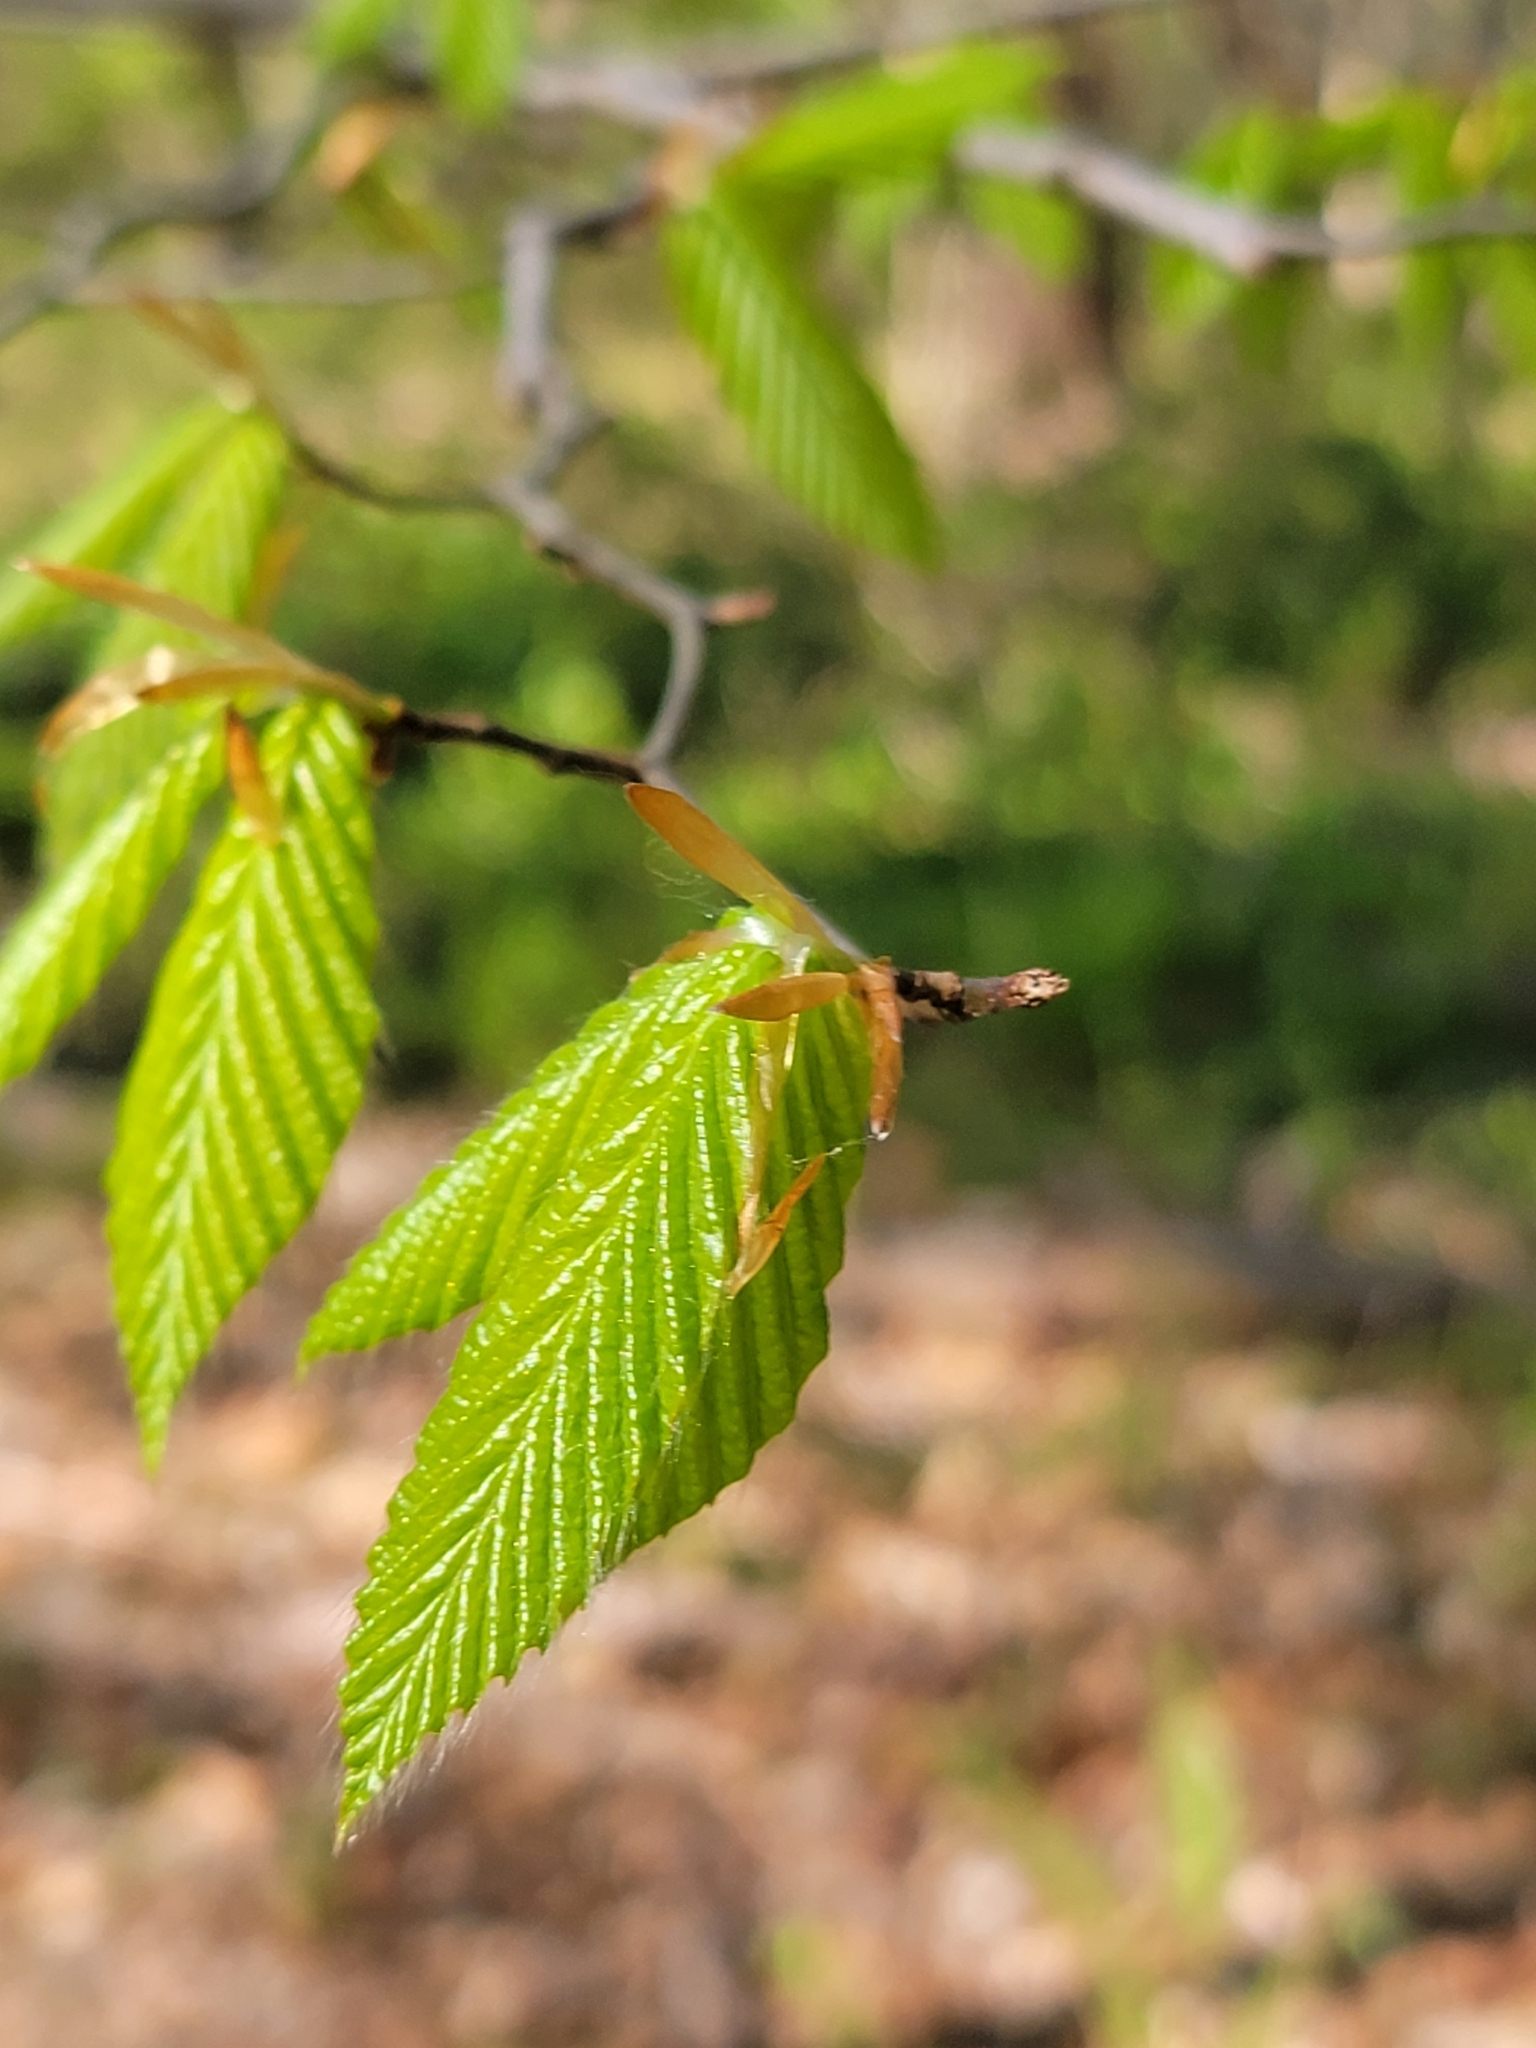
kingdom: Plantae
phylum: Tracheophyta
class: Magnoliopsida
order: Fagales
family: Fagaceae
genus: Fagus
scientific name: Fagus grandifolia
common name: American beech
